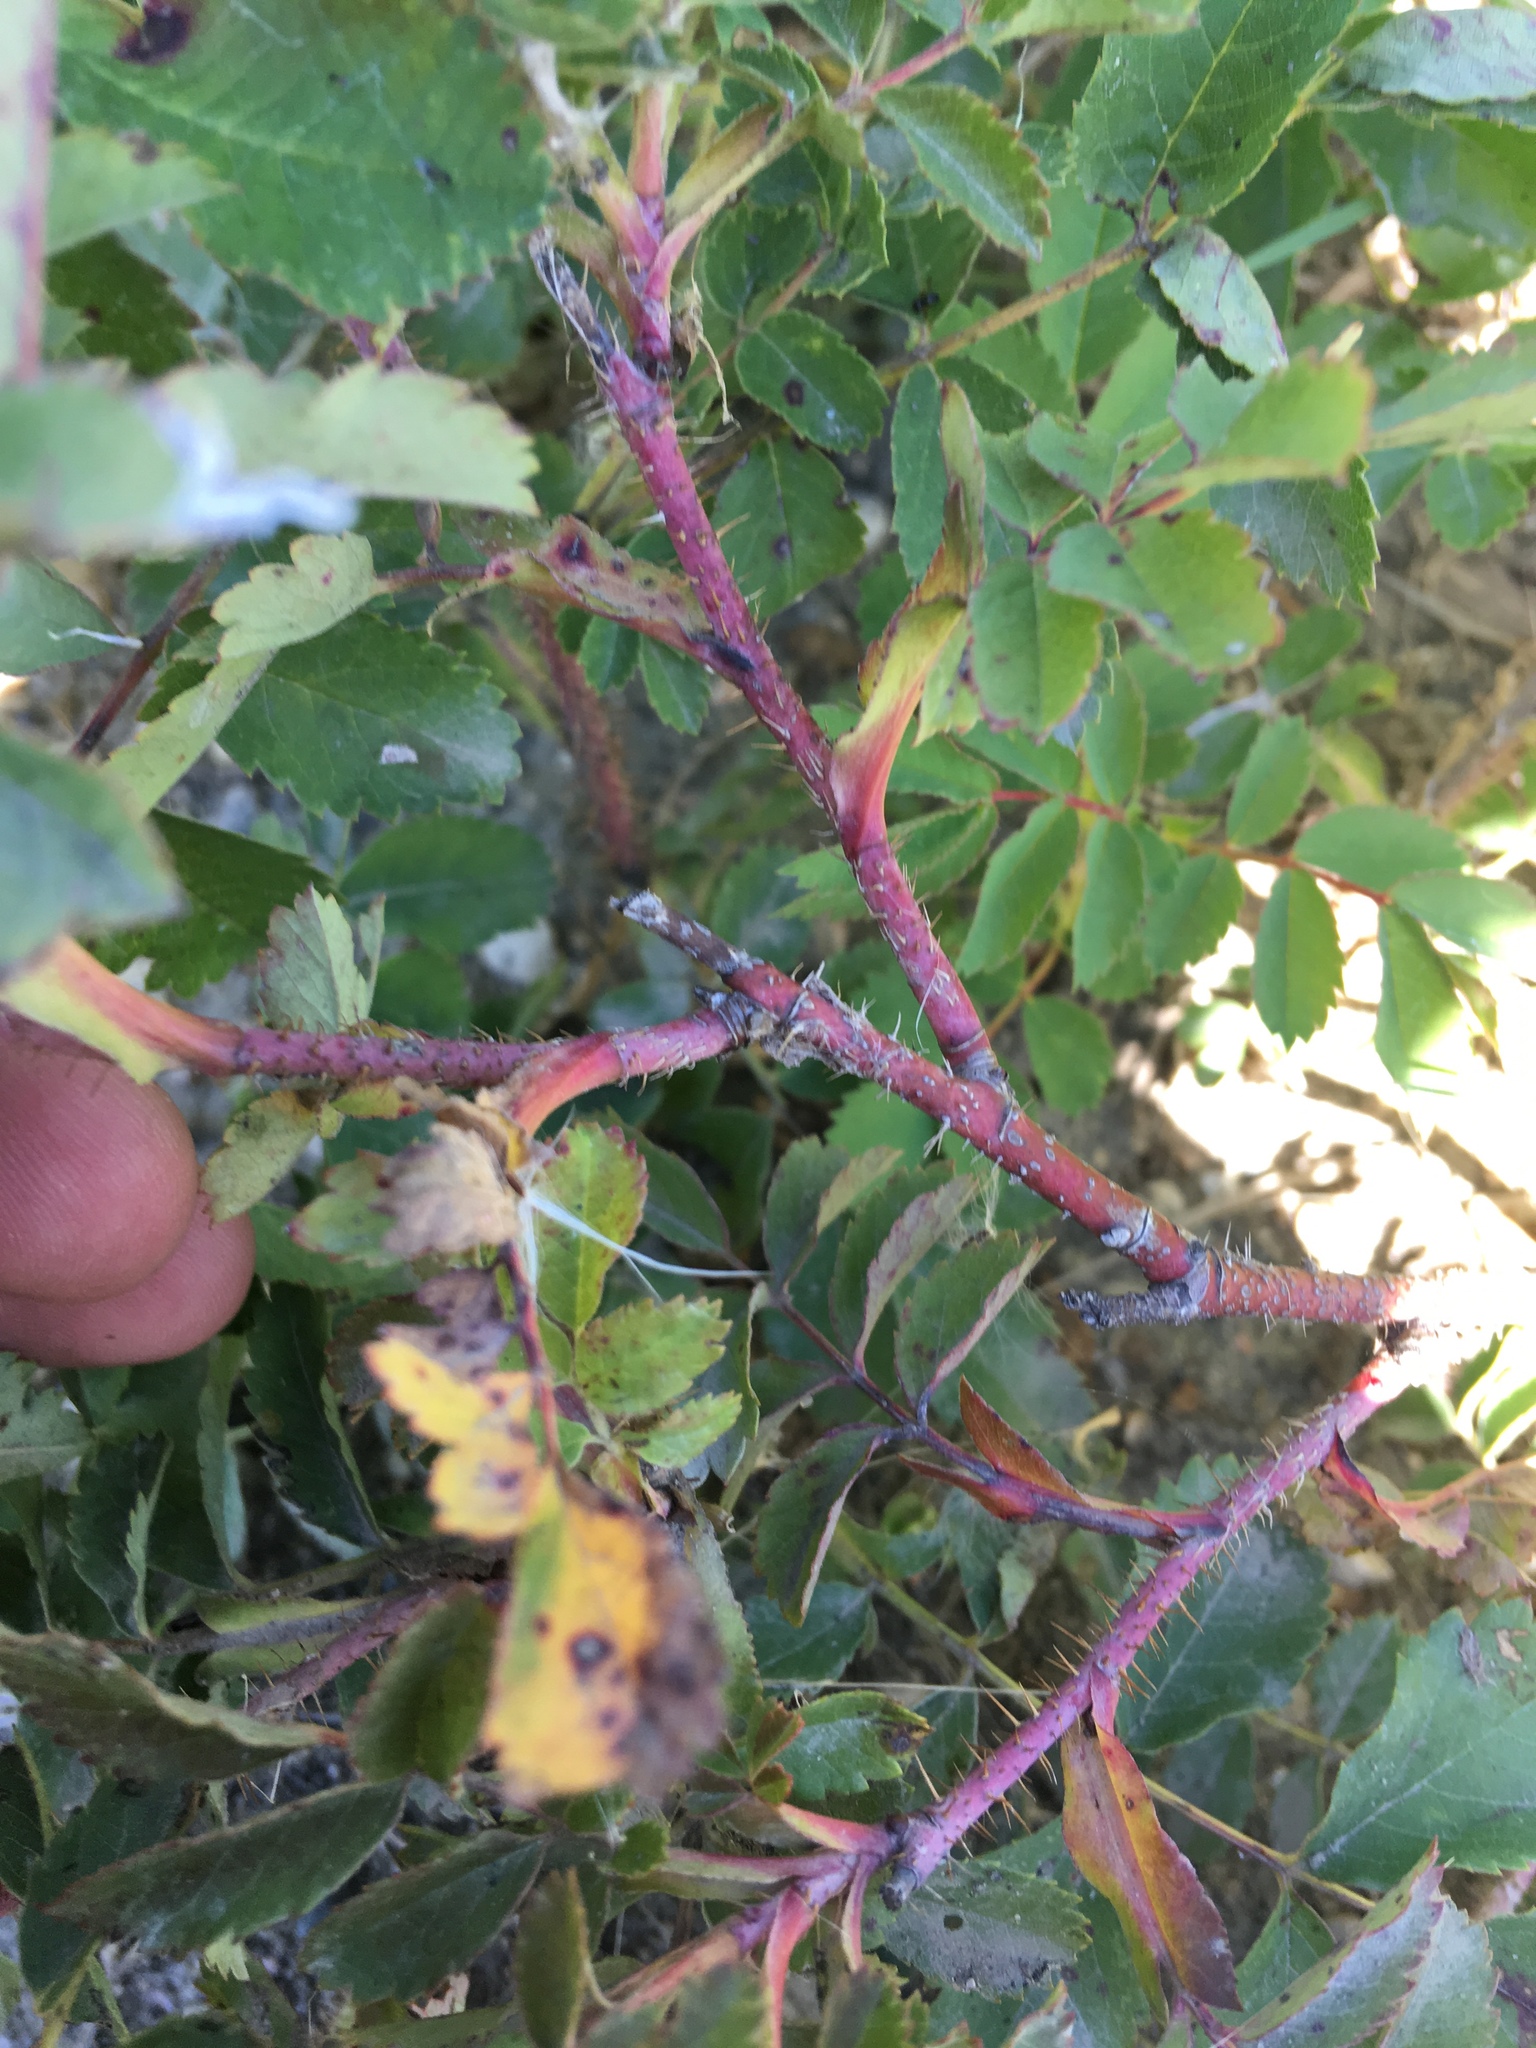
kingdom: Plantae
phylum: Tracheophyta
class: Magnoliopsida
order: Rosales
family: Rosaceae
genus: Rosa
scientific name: Rosa arkansana
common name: Prairie rose
